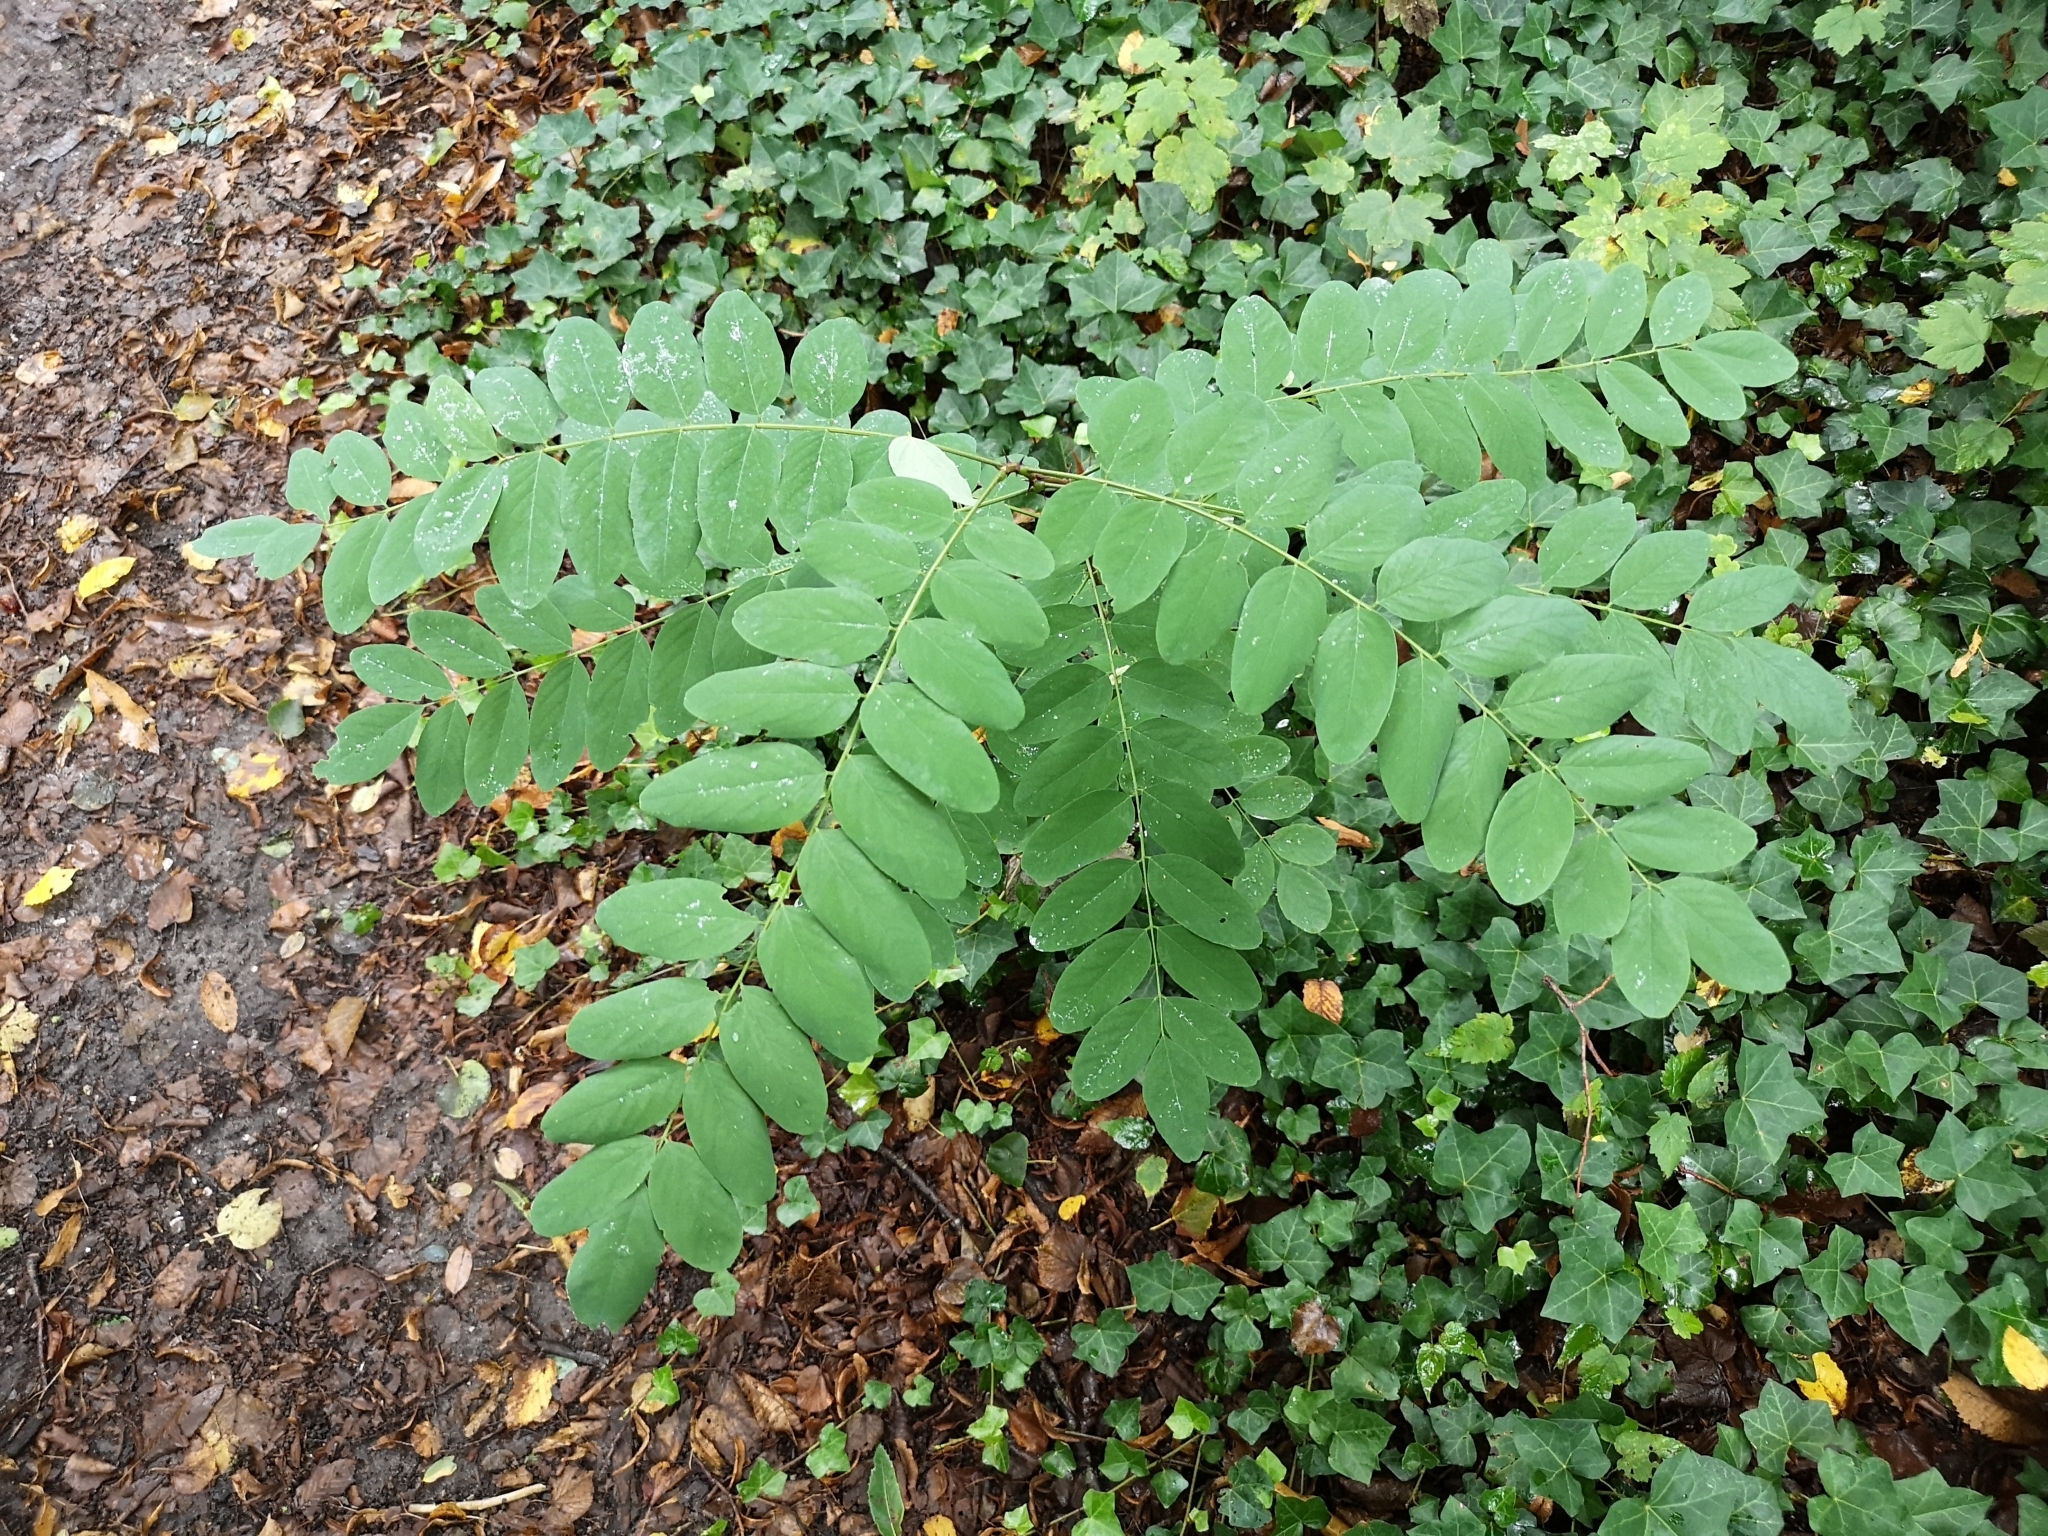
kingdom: Plantae
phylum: Tracheophyta
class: Magnoliopsida
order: Fabales
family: Fabaceae
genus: Robinia
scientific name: Robinia pseudoacacia
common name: Black locust
